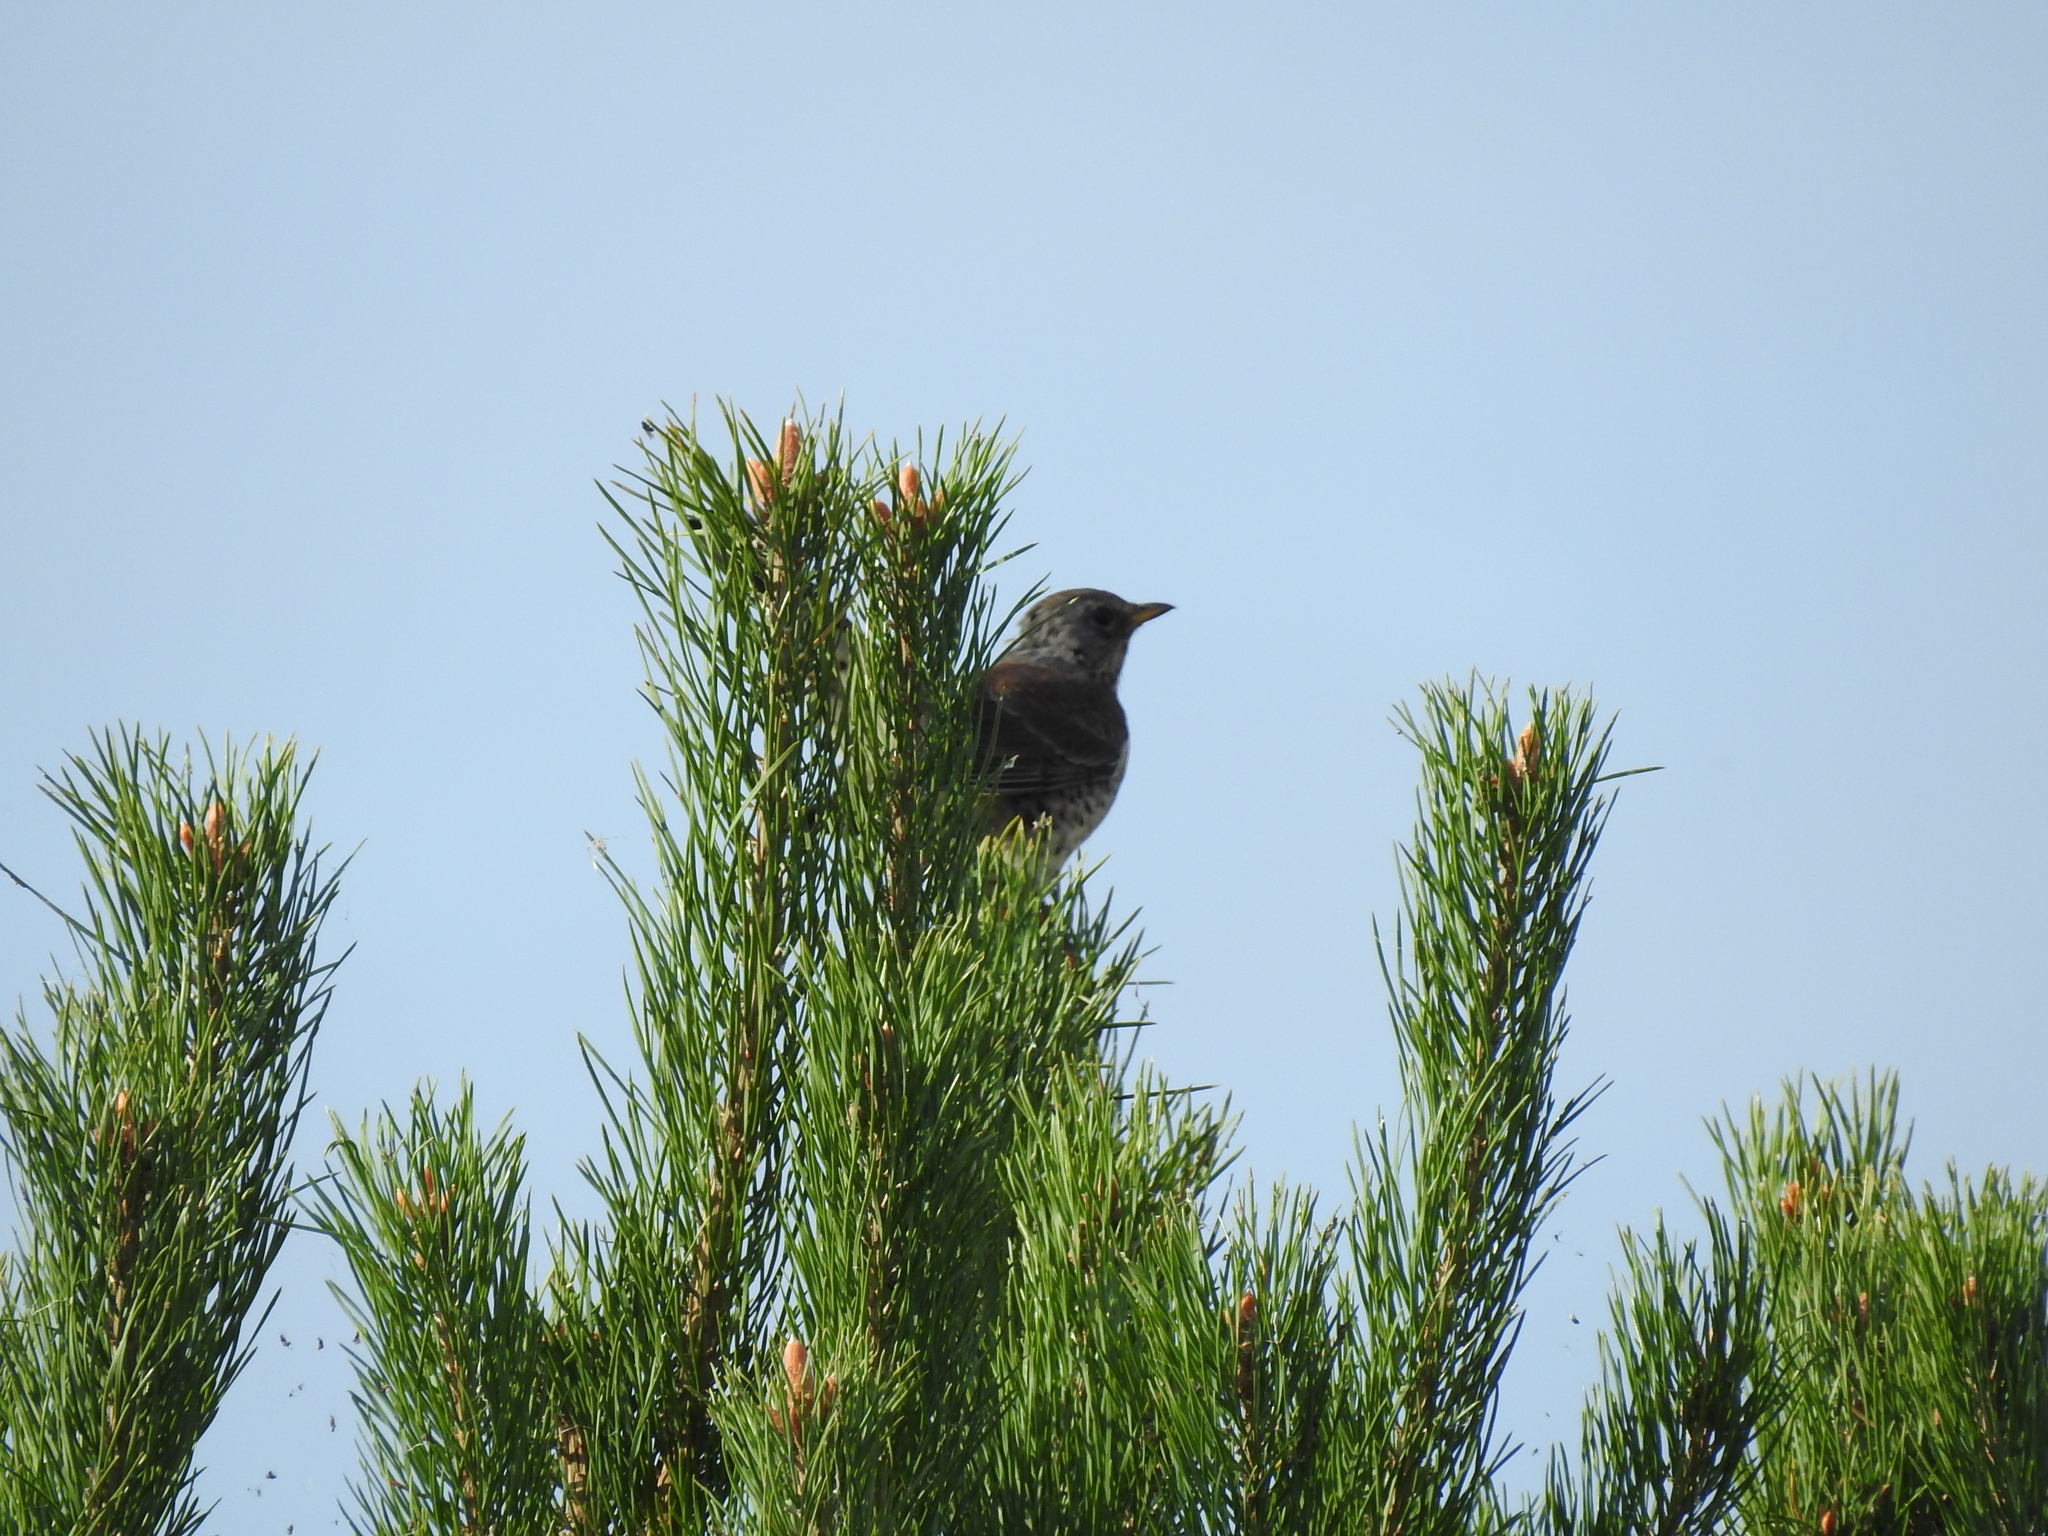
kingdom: Animalia
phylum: Chordata
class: Aves
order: Passeriformes
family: Turdidae
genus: Turdus
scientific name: Turdus pilaris
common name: Fieldfare
